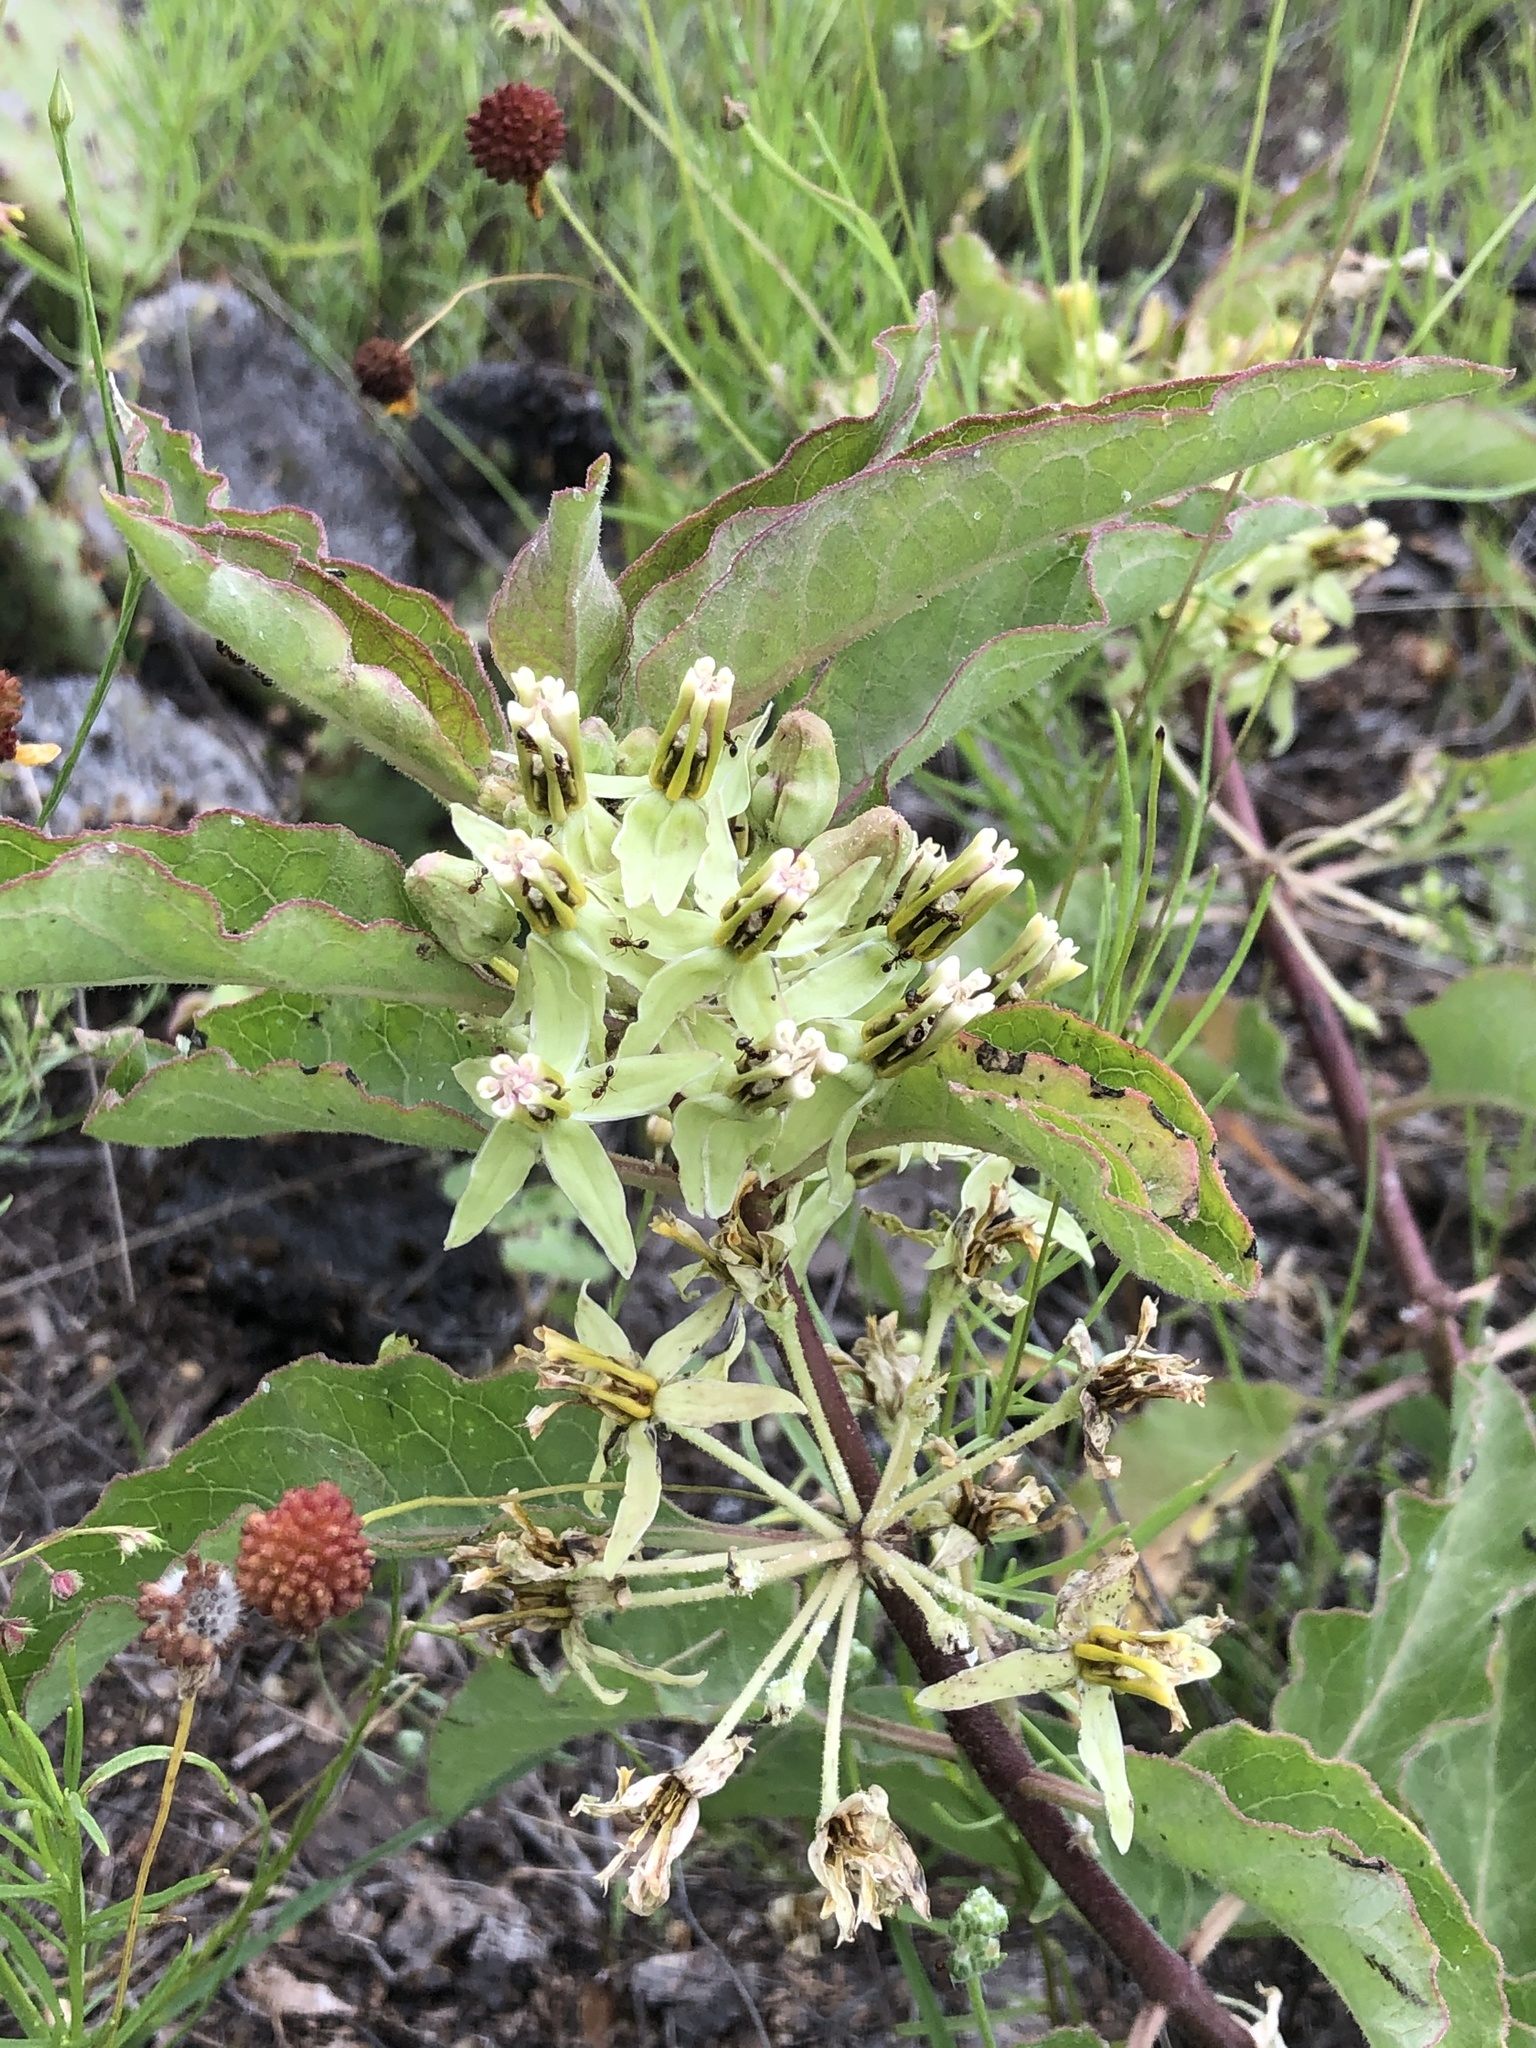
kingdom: Plantae
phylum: Tracheophyta
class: Magnoliopsida
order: Gentianales
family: Apocynaceae
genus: Asclepias
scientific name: Asclepias oenotheroides
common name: Zizotes milkweed
